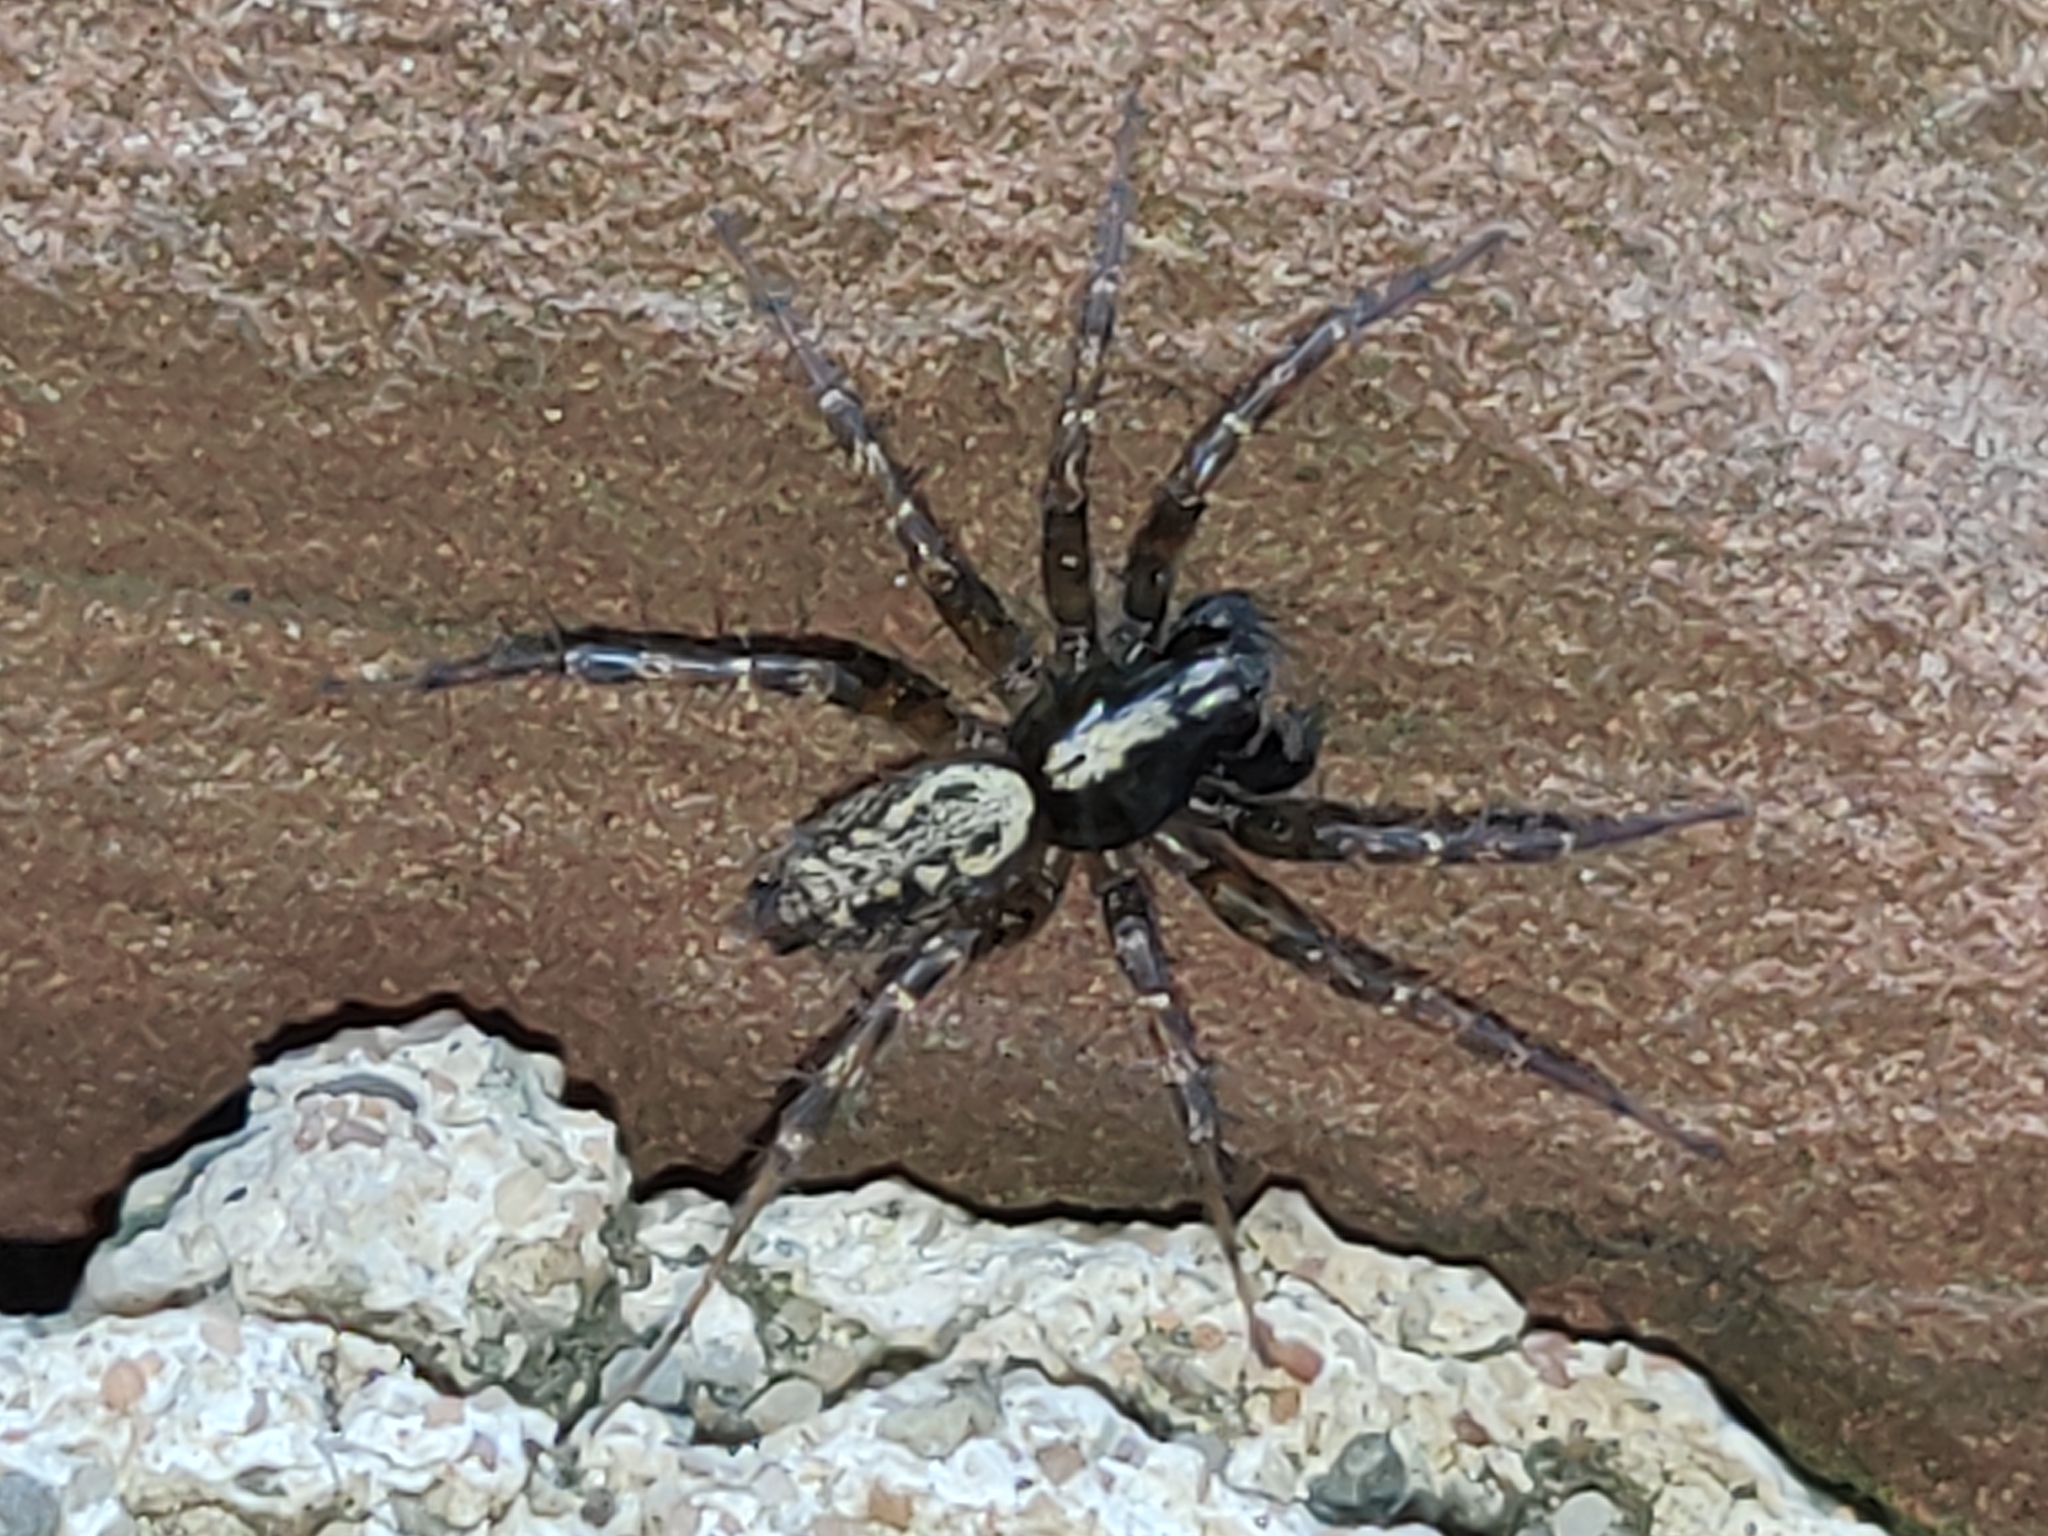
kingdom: Animalia
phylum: Arthropoda
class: Arachnida
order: Araneae
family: Agelenidae
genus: Textrix
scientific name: Textrix denticulata
